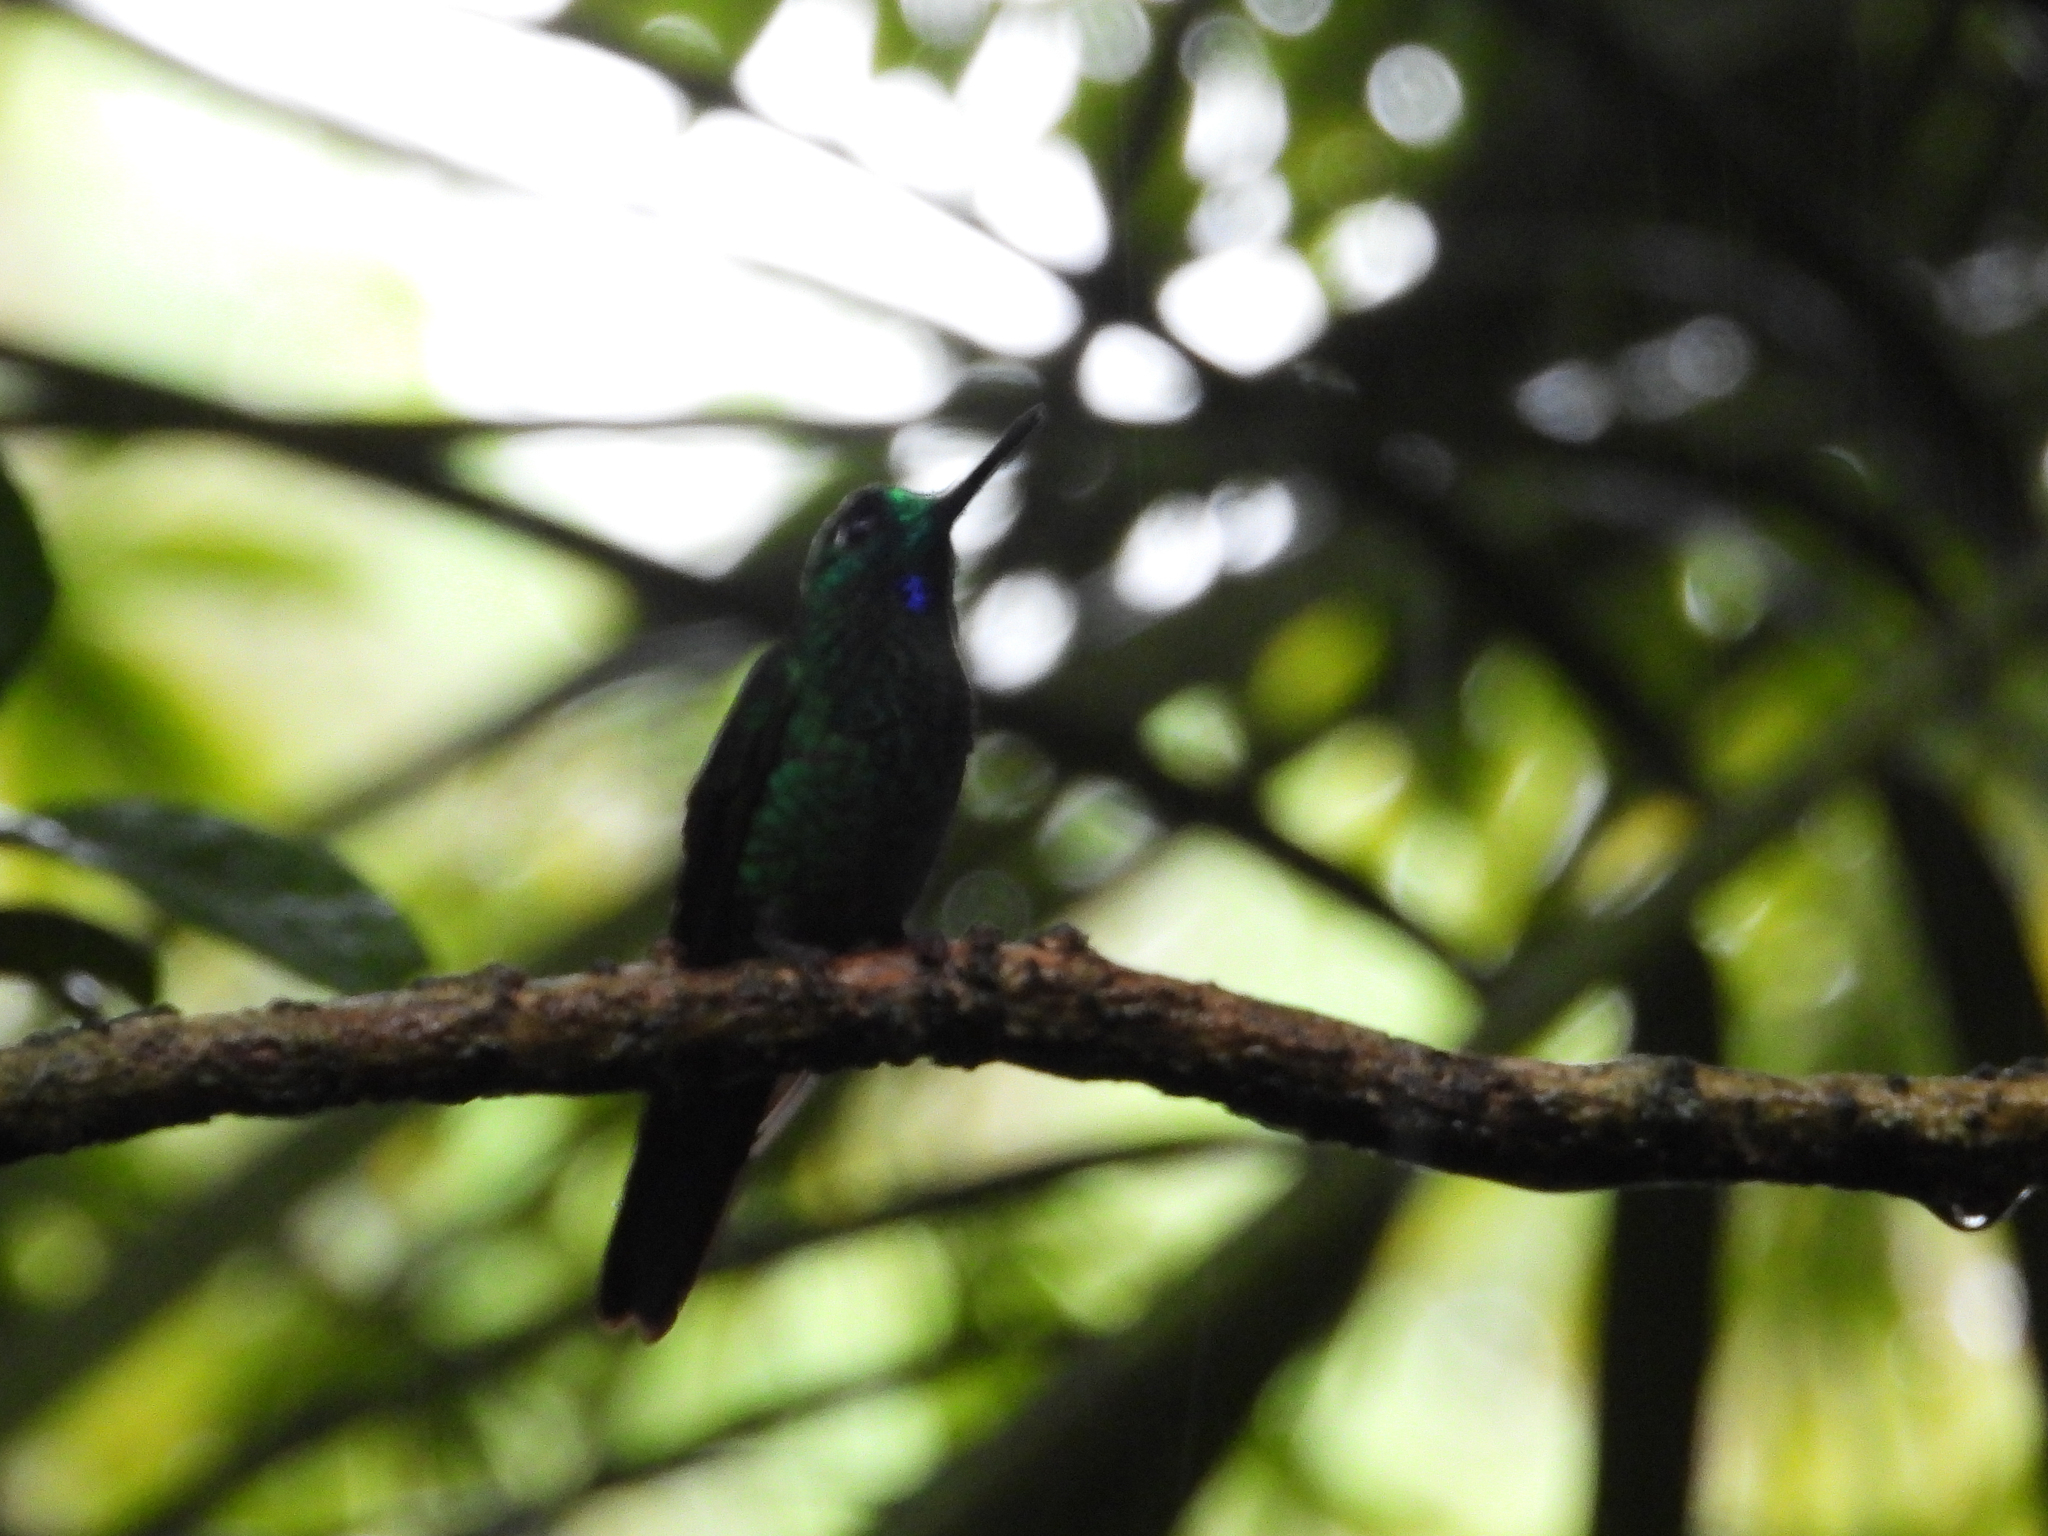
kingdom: Animalia
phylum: Chordata
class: Aves
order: Apodiformes
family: Trochilidae
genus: Heliodoxa
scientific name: Heliodoxa jacula
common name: Green-crowned brilliant
